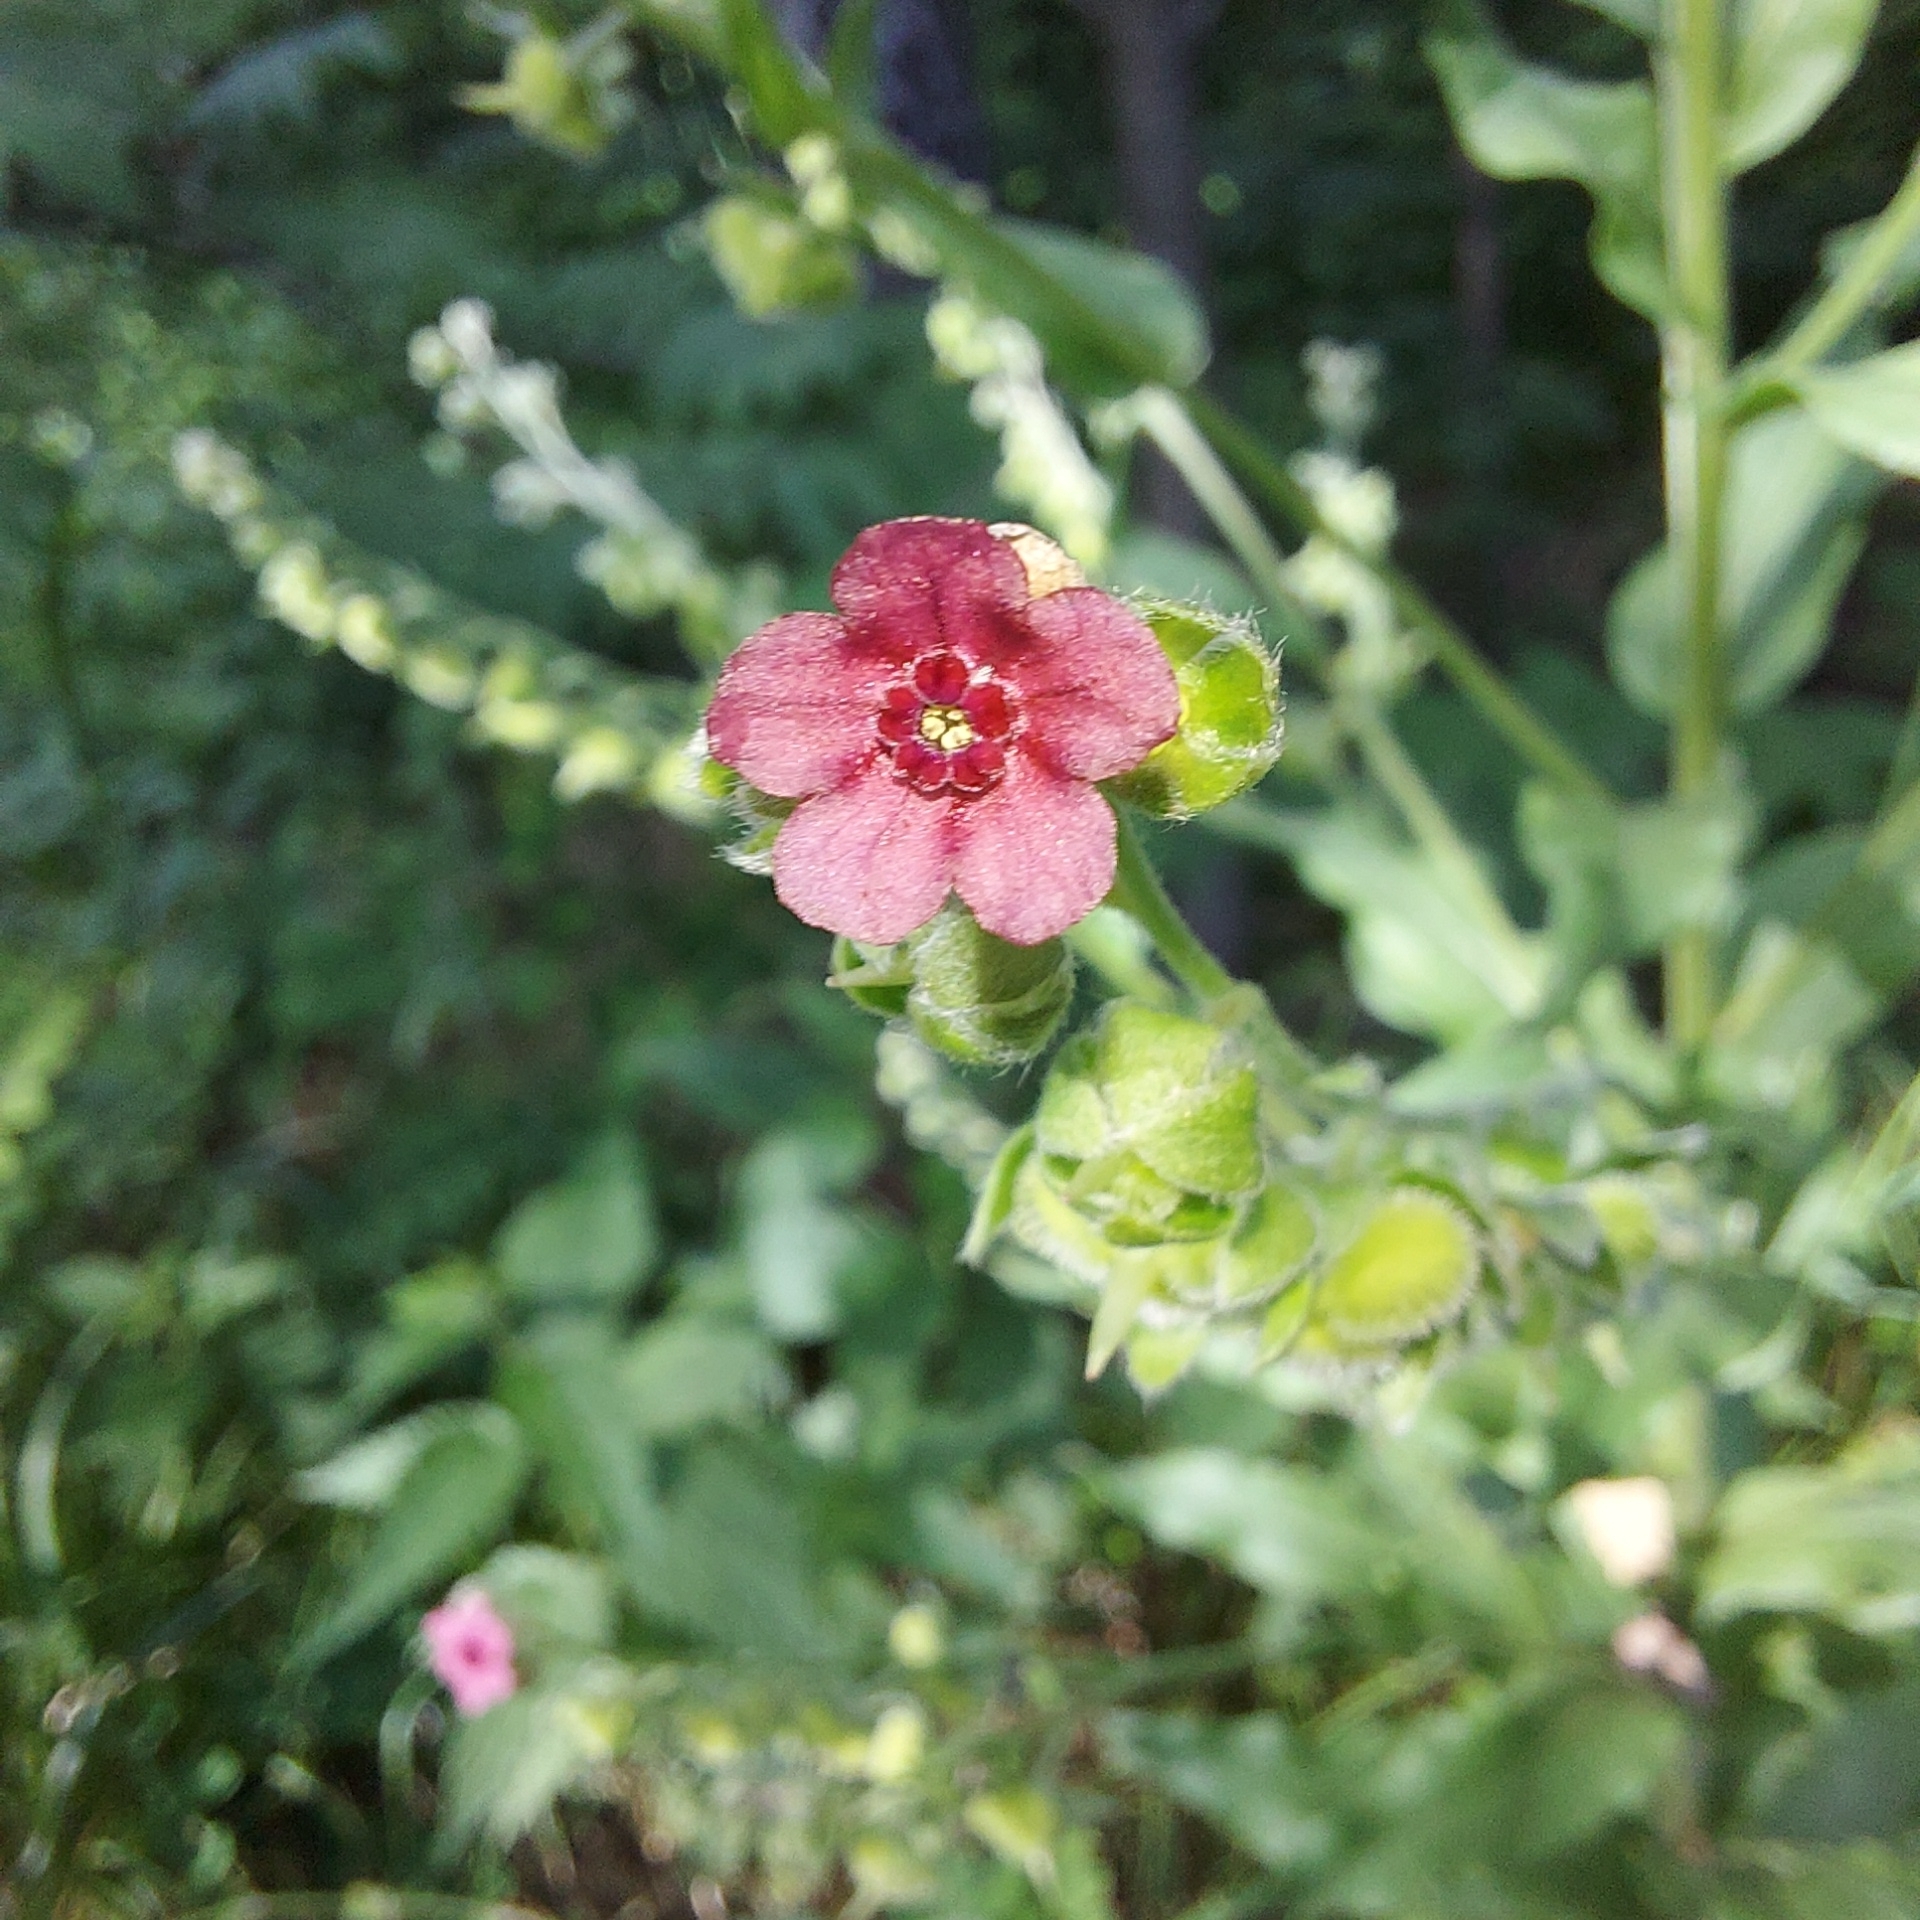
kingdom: Plantae
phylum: Tracheophyta
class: Magnoliopsida
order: Boraginales
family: Boraginaceae
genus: Cynoglossum
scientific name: Cynoglossum officinale
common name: Hound's-tongue
